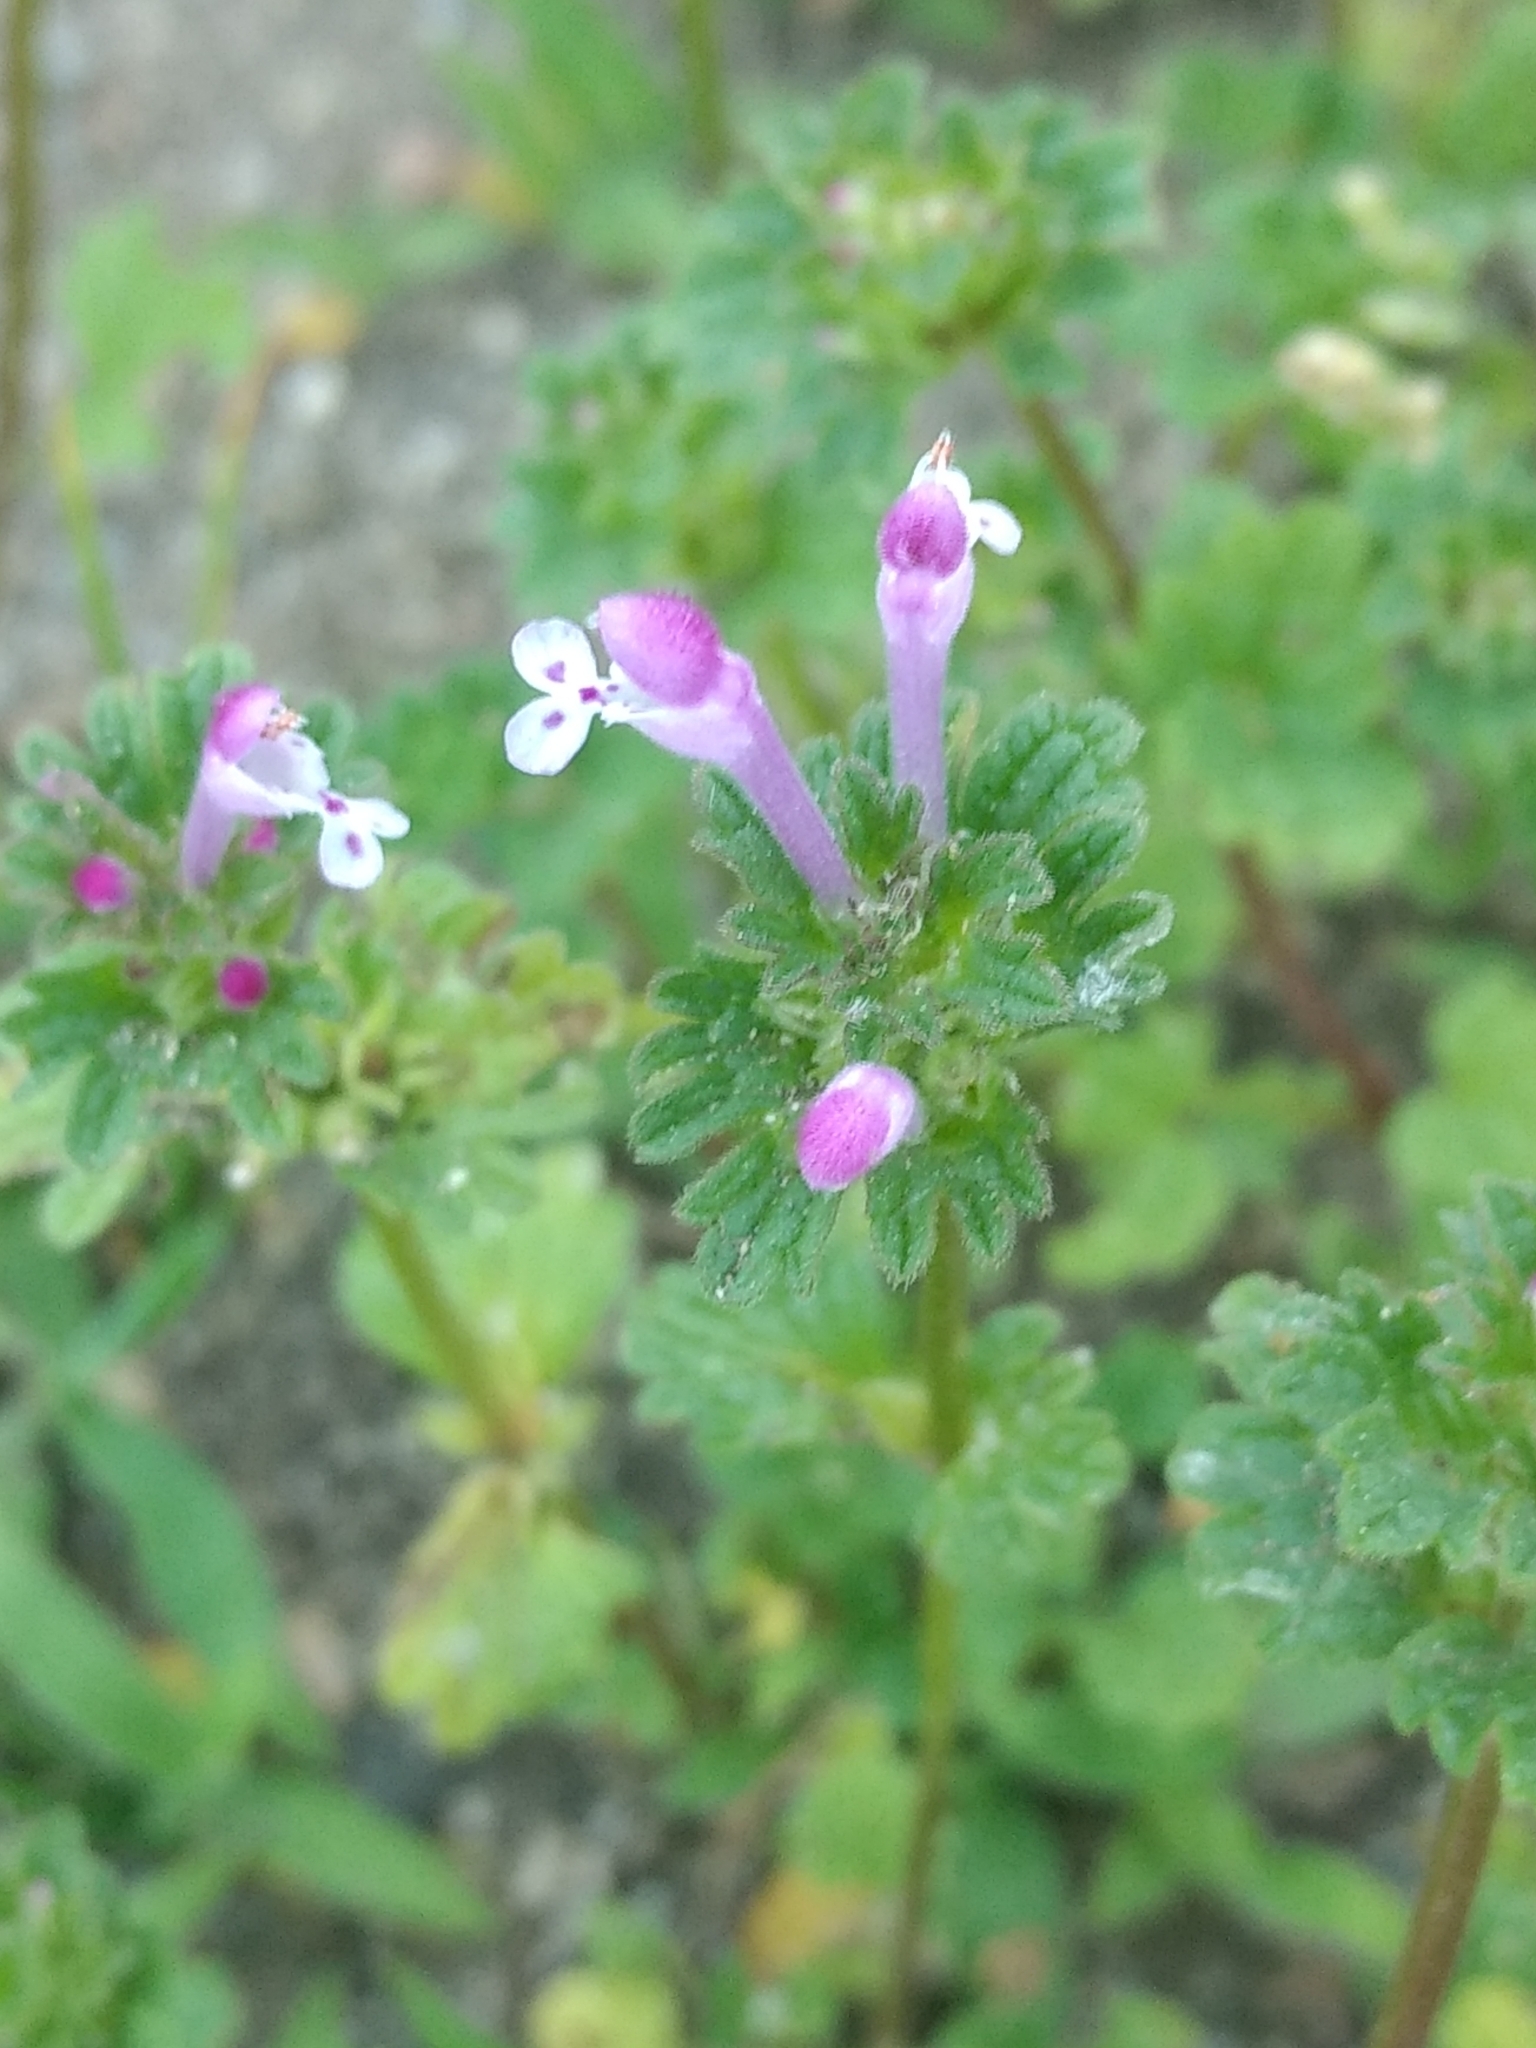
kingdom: Plantae
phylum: Tracheophyta
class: Magnoliopsida
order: Lamiales
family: Lamiaceae
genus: Lamium
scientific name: Lamium amplexicaule
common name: Henbit dead-nettle
